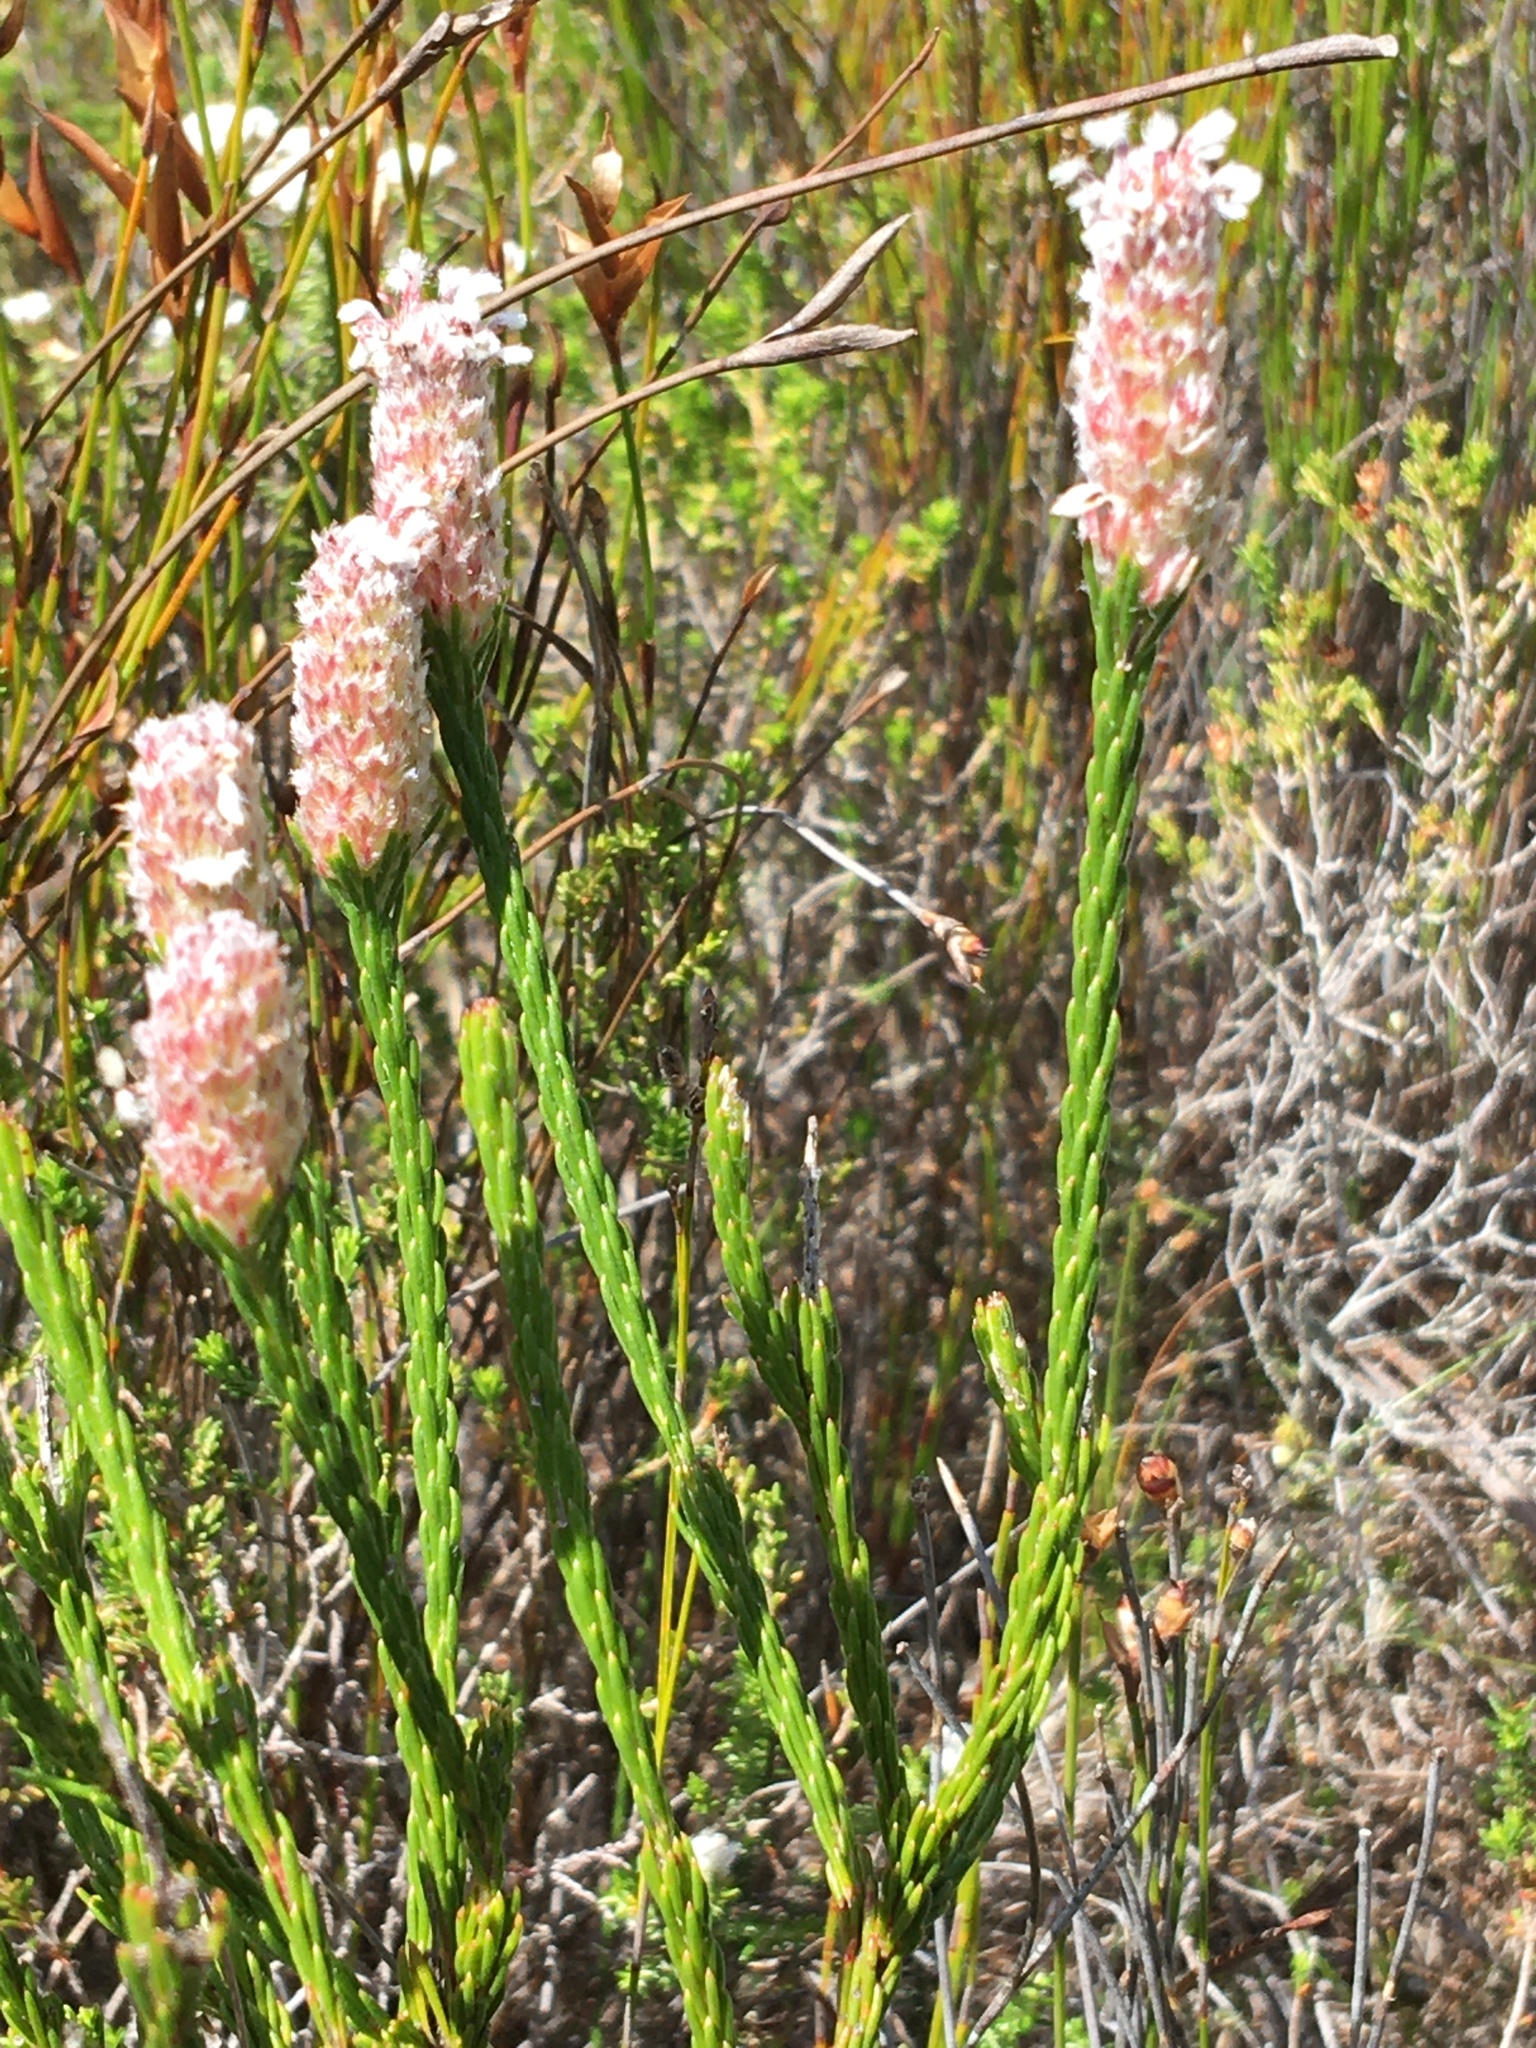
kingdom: Plantae
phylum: Tracheophyta
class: Magnoliopsida
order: Proteales
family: Proteaceae
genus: Spatalla
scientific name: Spatalla ericoides
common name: Erica-leaf spoon
